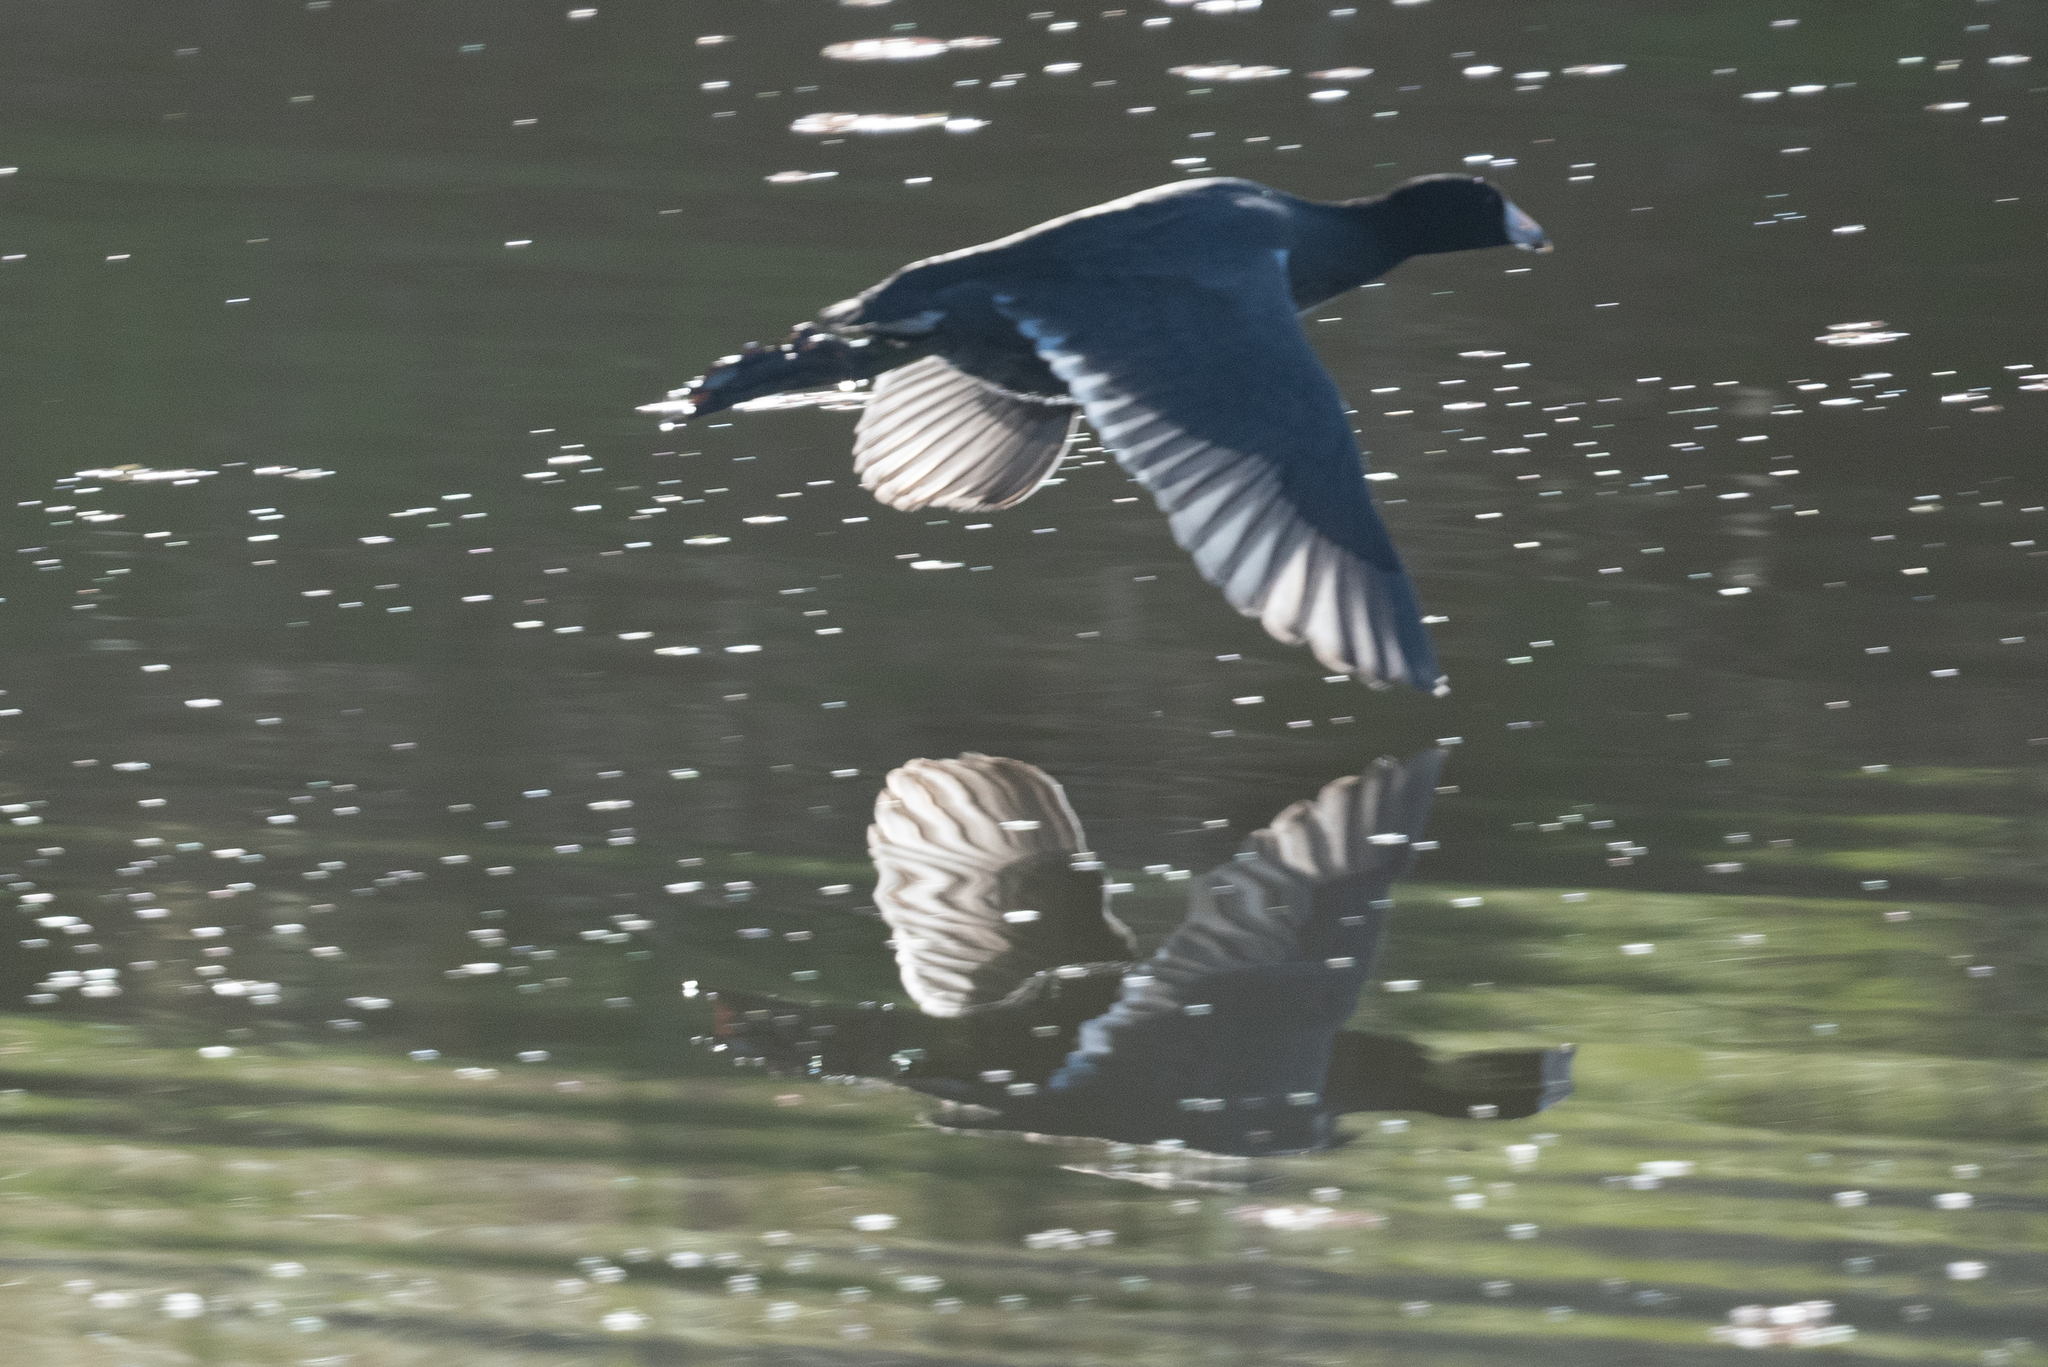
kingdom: Animalia
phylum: Chordata
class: Aves
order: Gruiformes
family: Rallidae
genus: Fulica
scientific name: Fulica americana
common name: American coot
